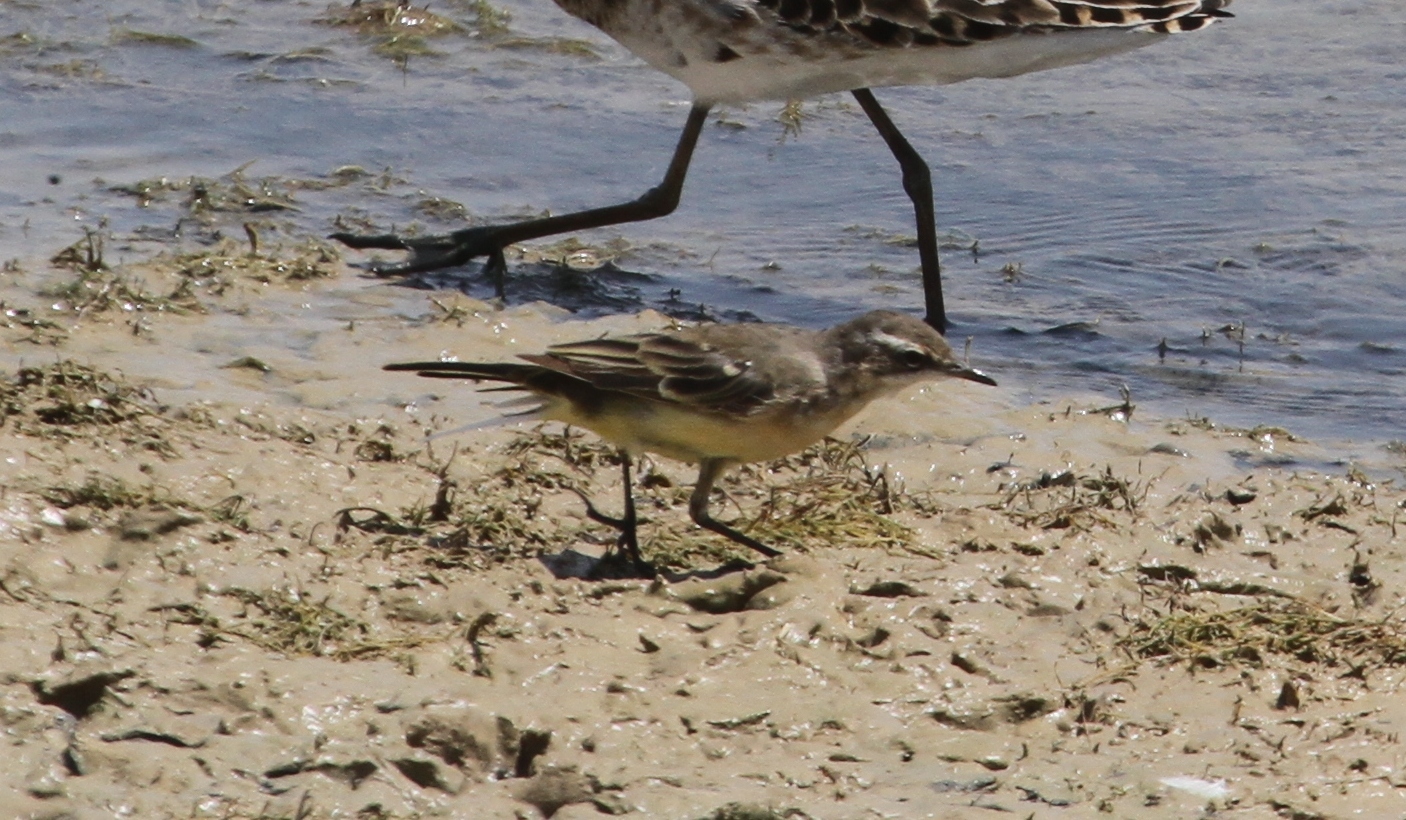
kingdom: Animalia
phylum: Chordata
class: Aves
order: Passeriformes
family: Motacillidae
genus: Motacilla
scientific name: Motacilla flava
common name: Western yellow wagtail
